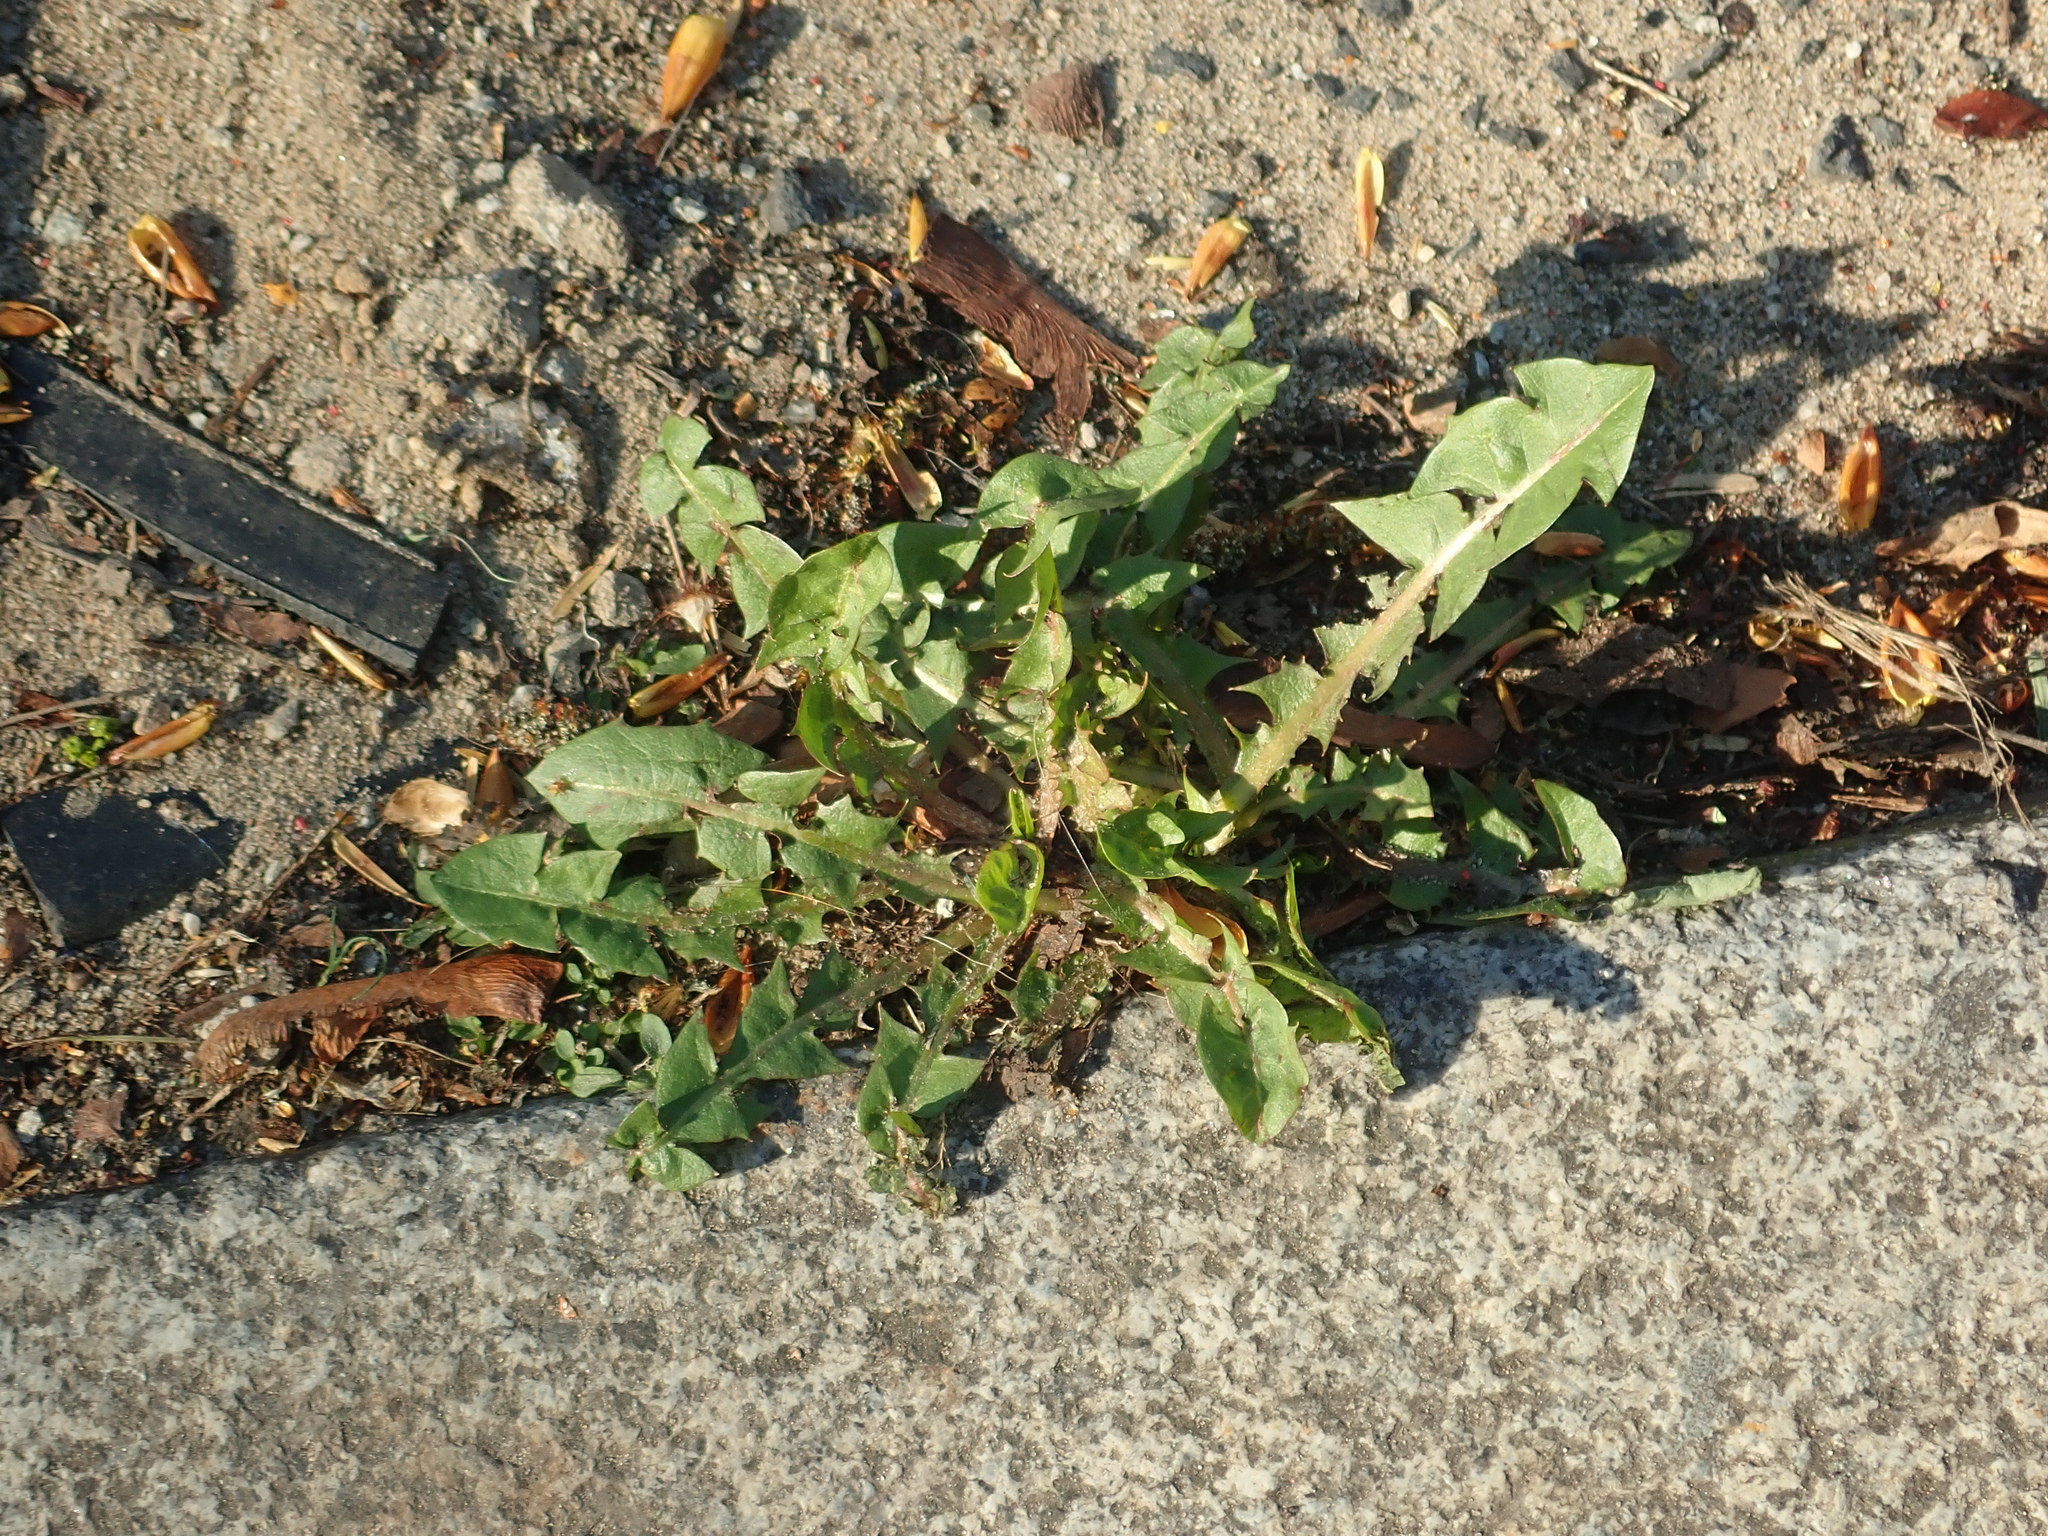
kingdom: Plantae
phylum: Tracheophyta
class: Magnoliopsida
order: Asterales
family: Asteraceae
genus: Taraxacum
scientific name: Taraxacum officinale
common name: Common dandelion
